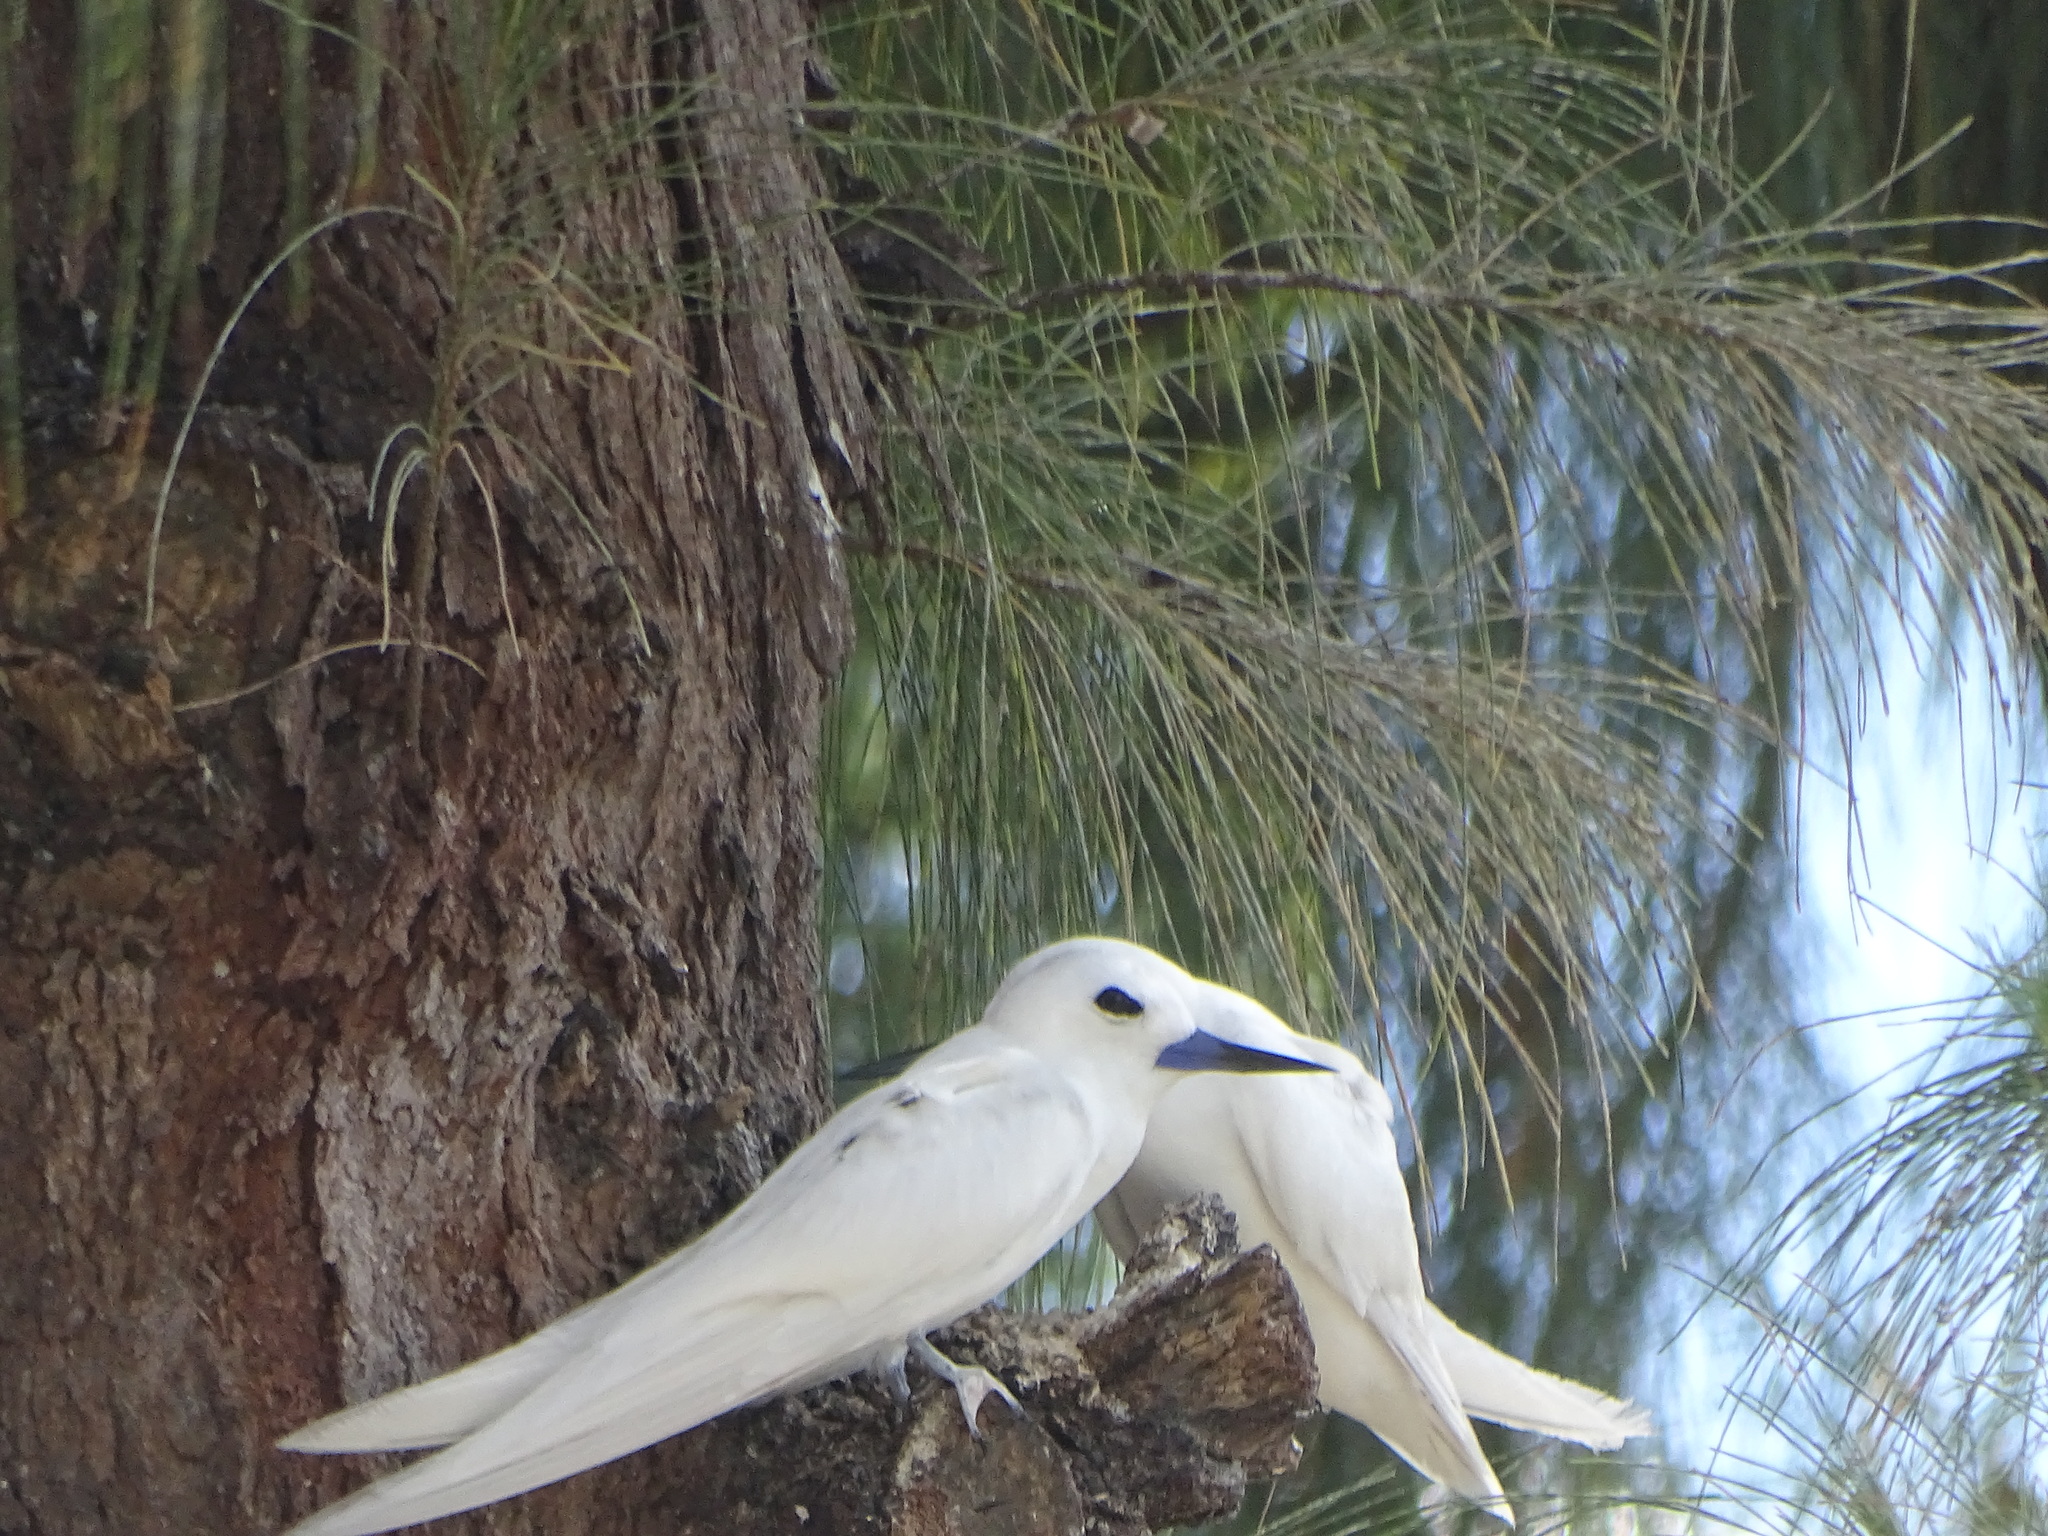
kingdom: Animalia
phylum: Chordata
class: Aves
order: Charadriiformes
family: Laridae
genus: Gygis
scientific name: Gygis alba
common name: White tern
